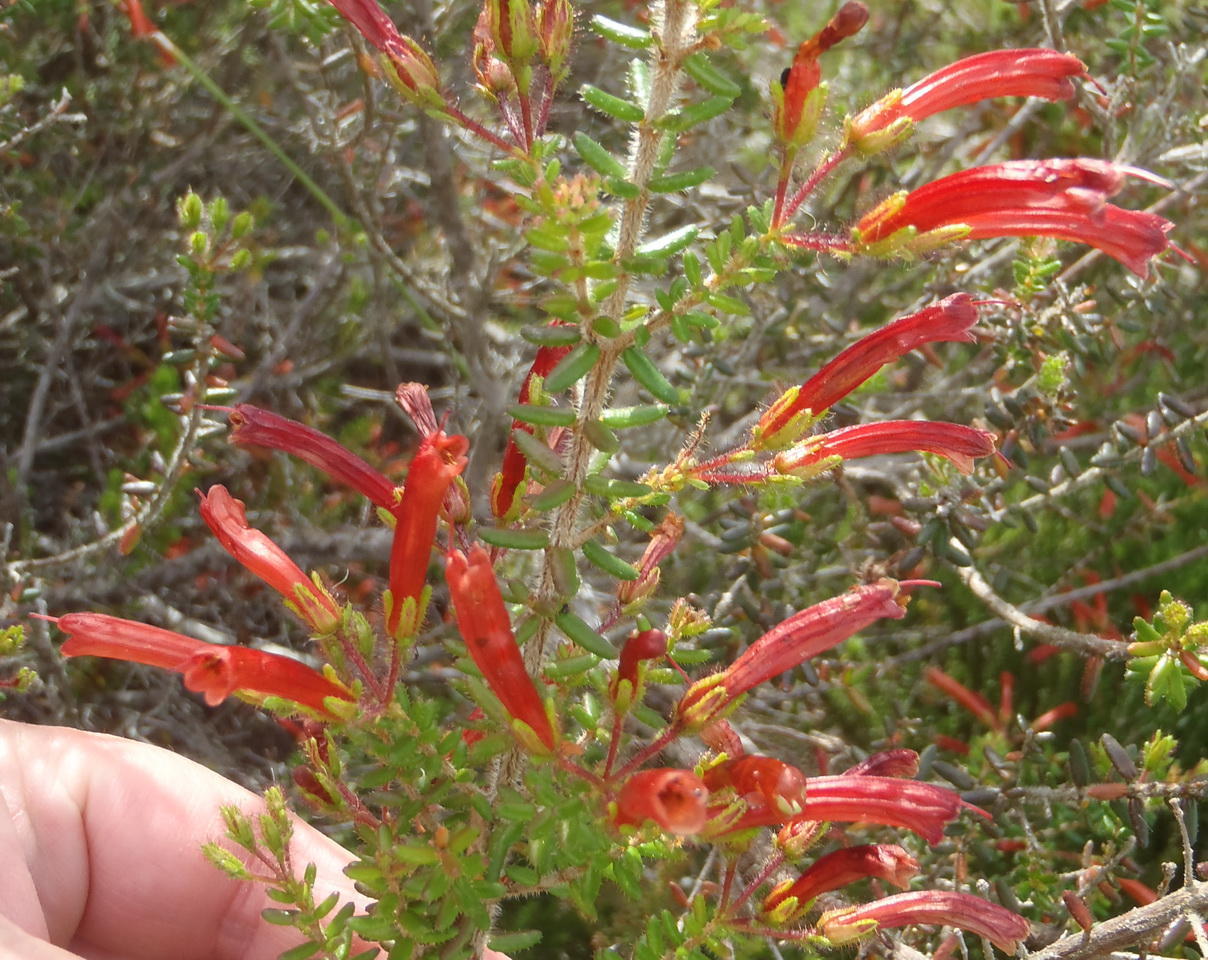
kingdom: Plantae
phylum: Tracheophyta
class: Magnoliopsida
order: Ericales
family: Ericaceae
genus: Erica
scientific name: Erica glandulosa
